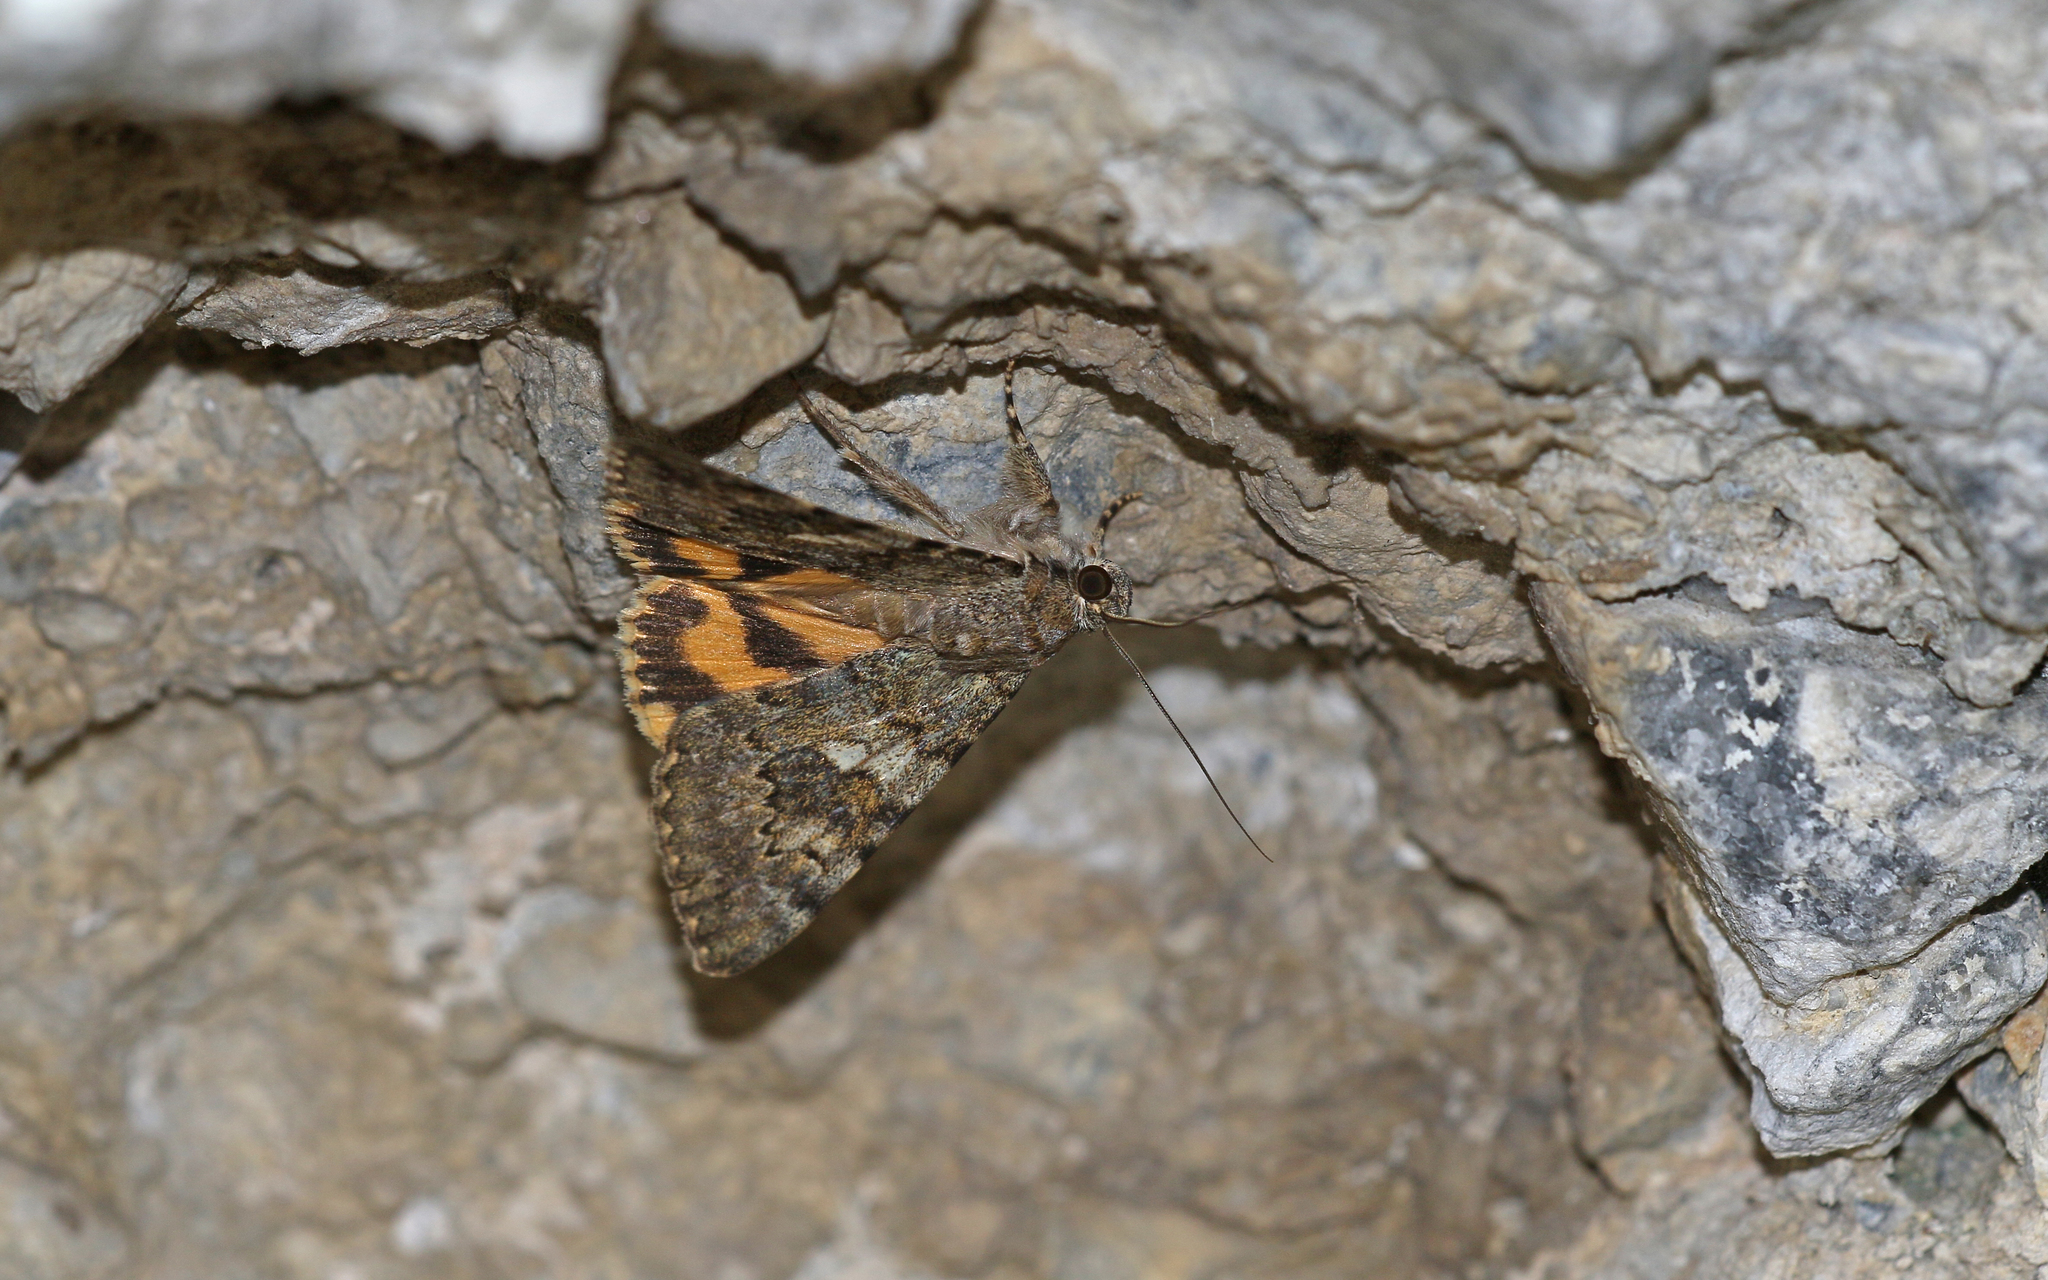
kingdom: Animalia
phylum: Arthropoda
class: Insecta
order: Lepidoptera
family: Erebidae
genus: Catocala
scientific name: Catocala nymphaea
